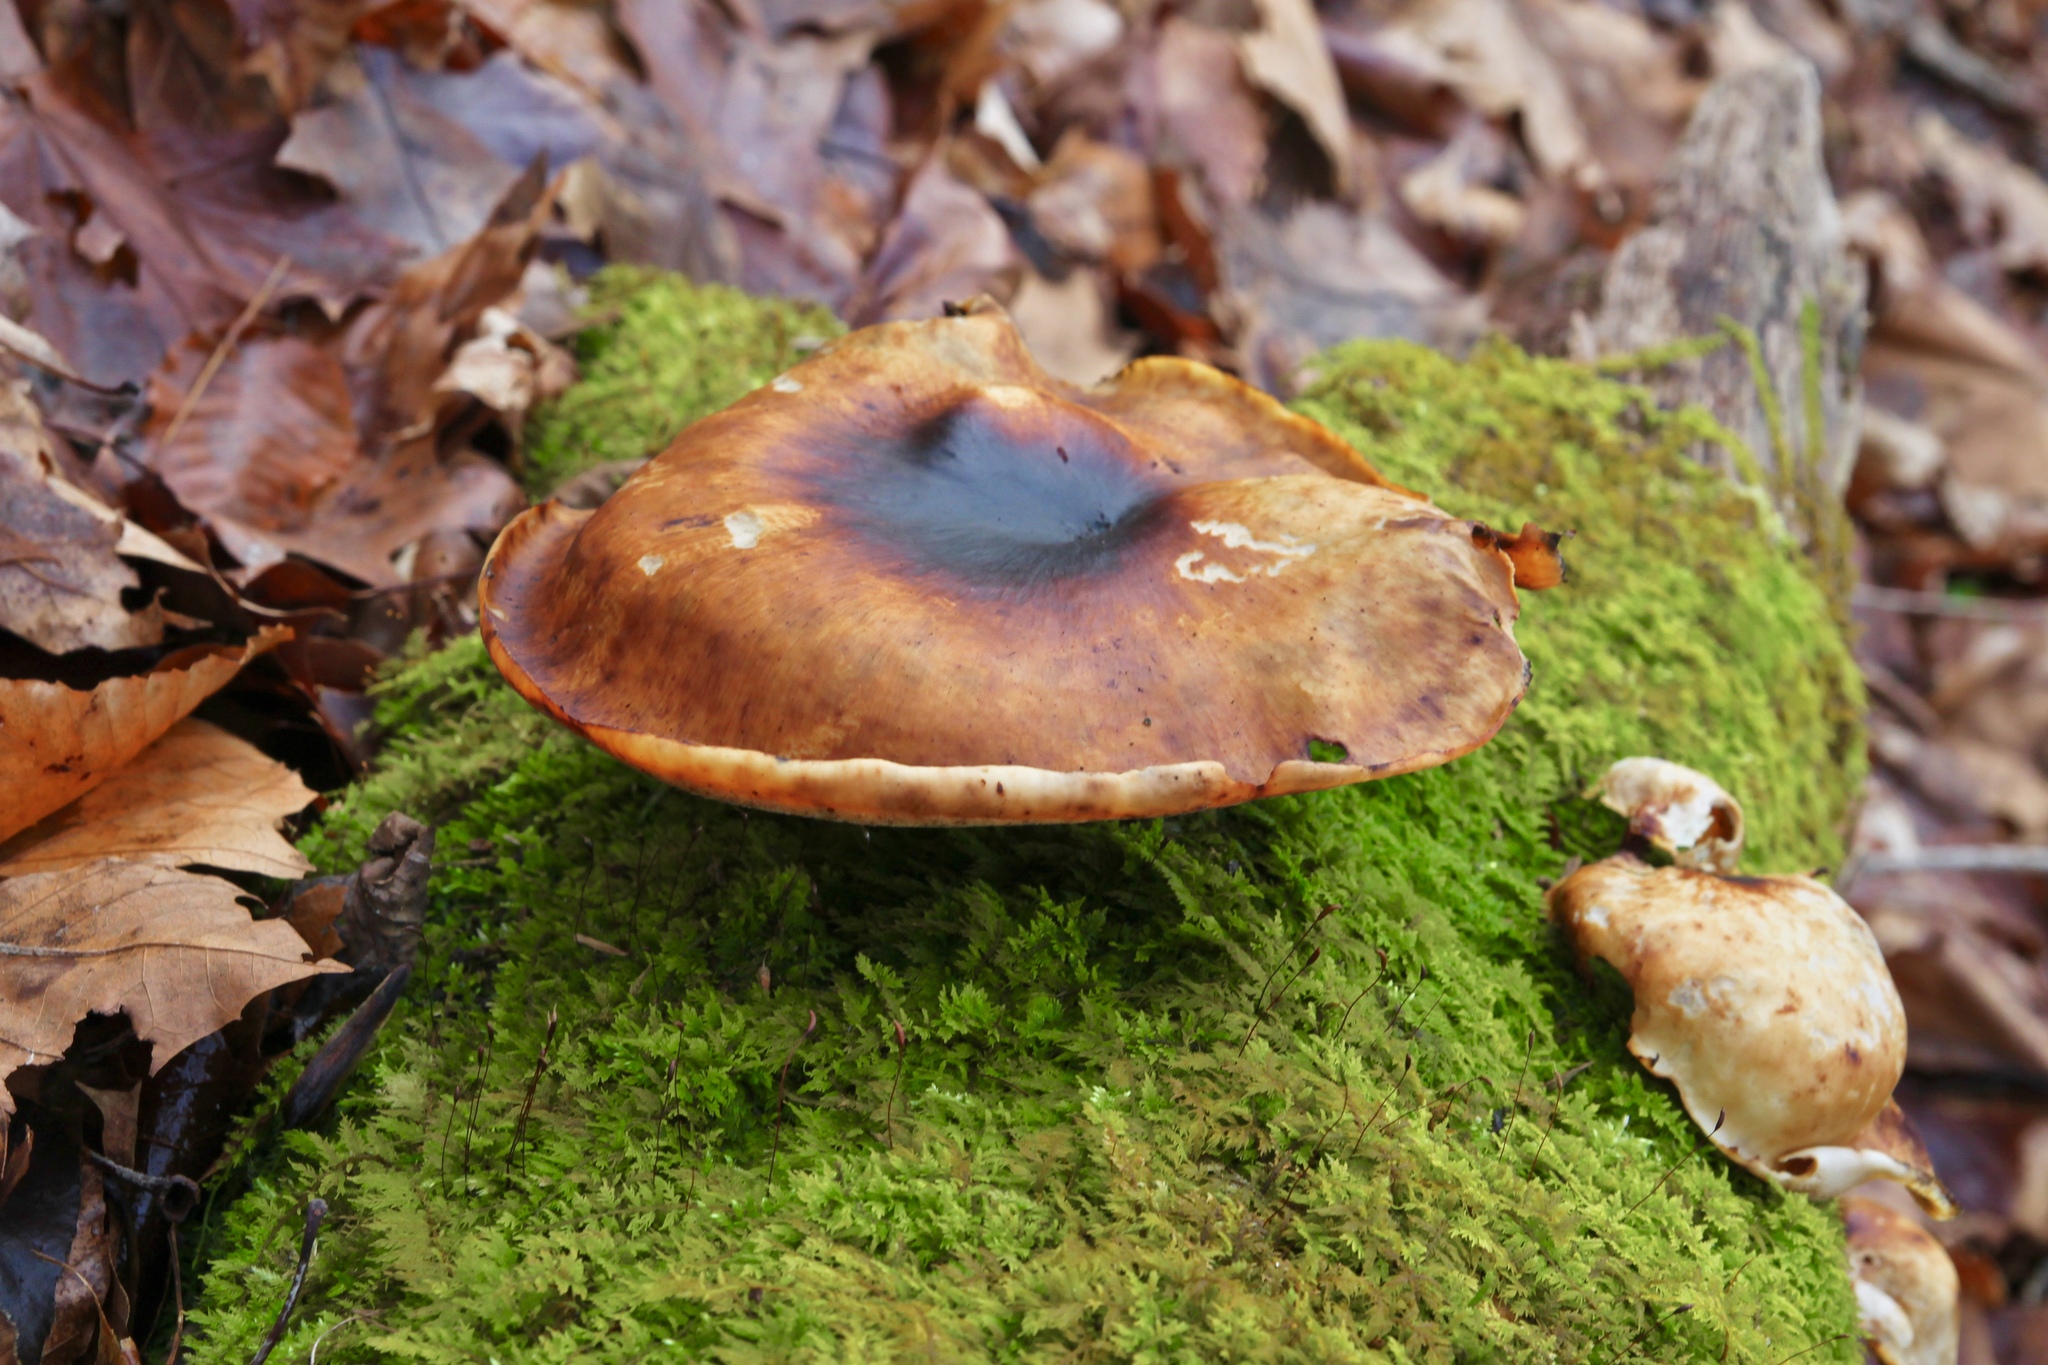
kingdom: Fungi
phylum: Basidiomycota
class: Agaricomycetes
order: Polyporales
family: Polyporaceae
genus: Picipes
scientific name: Picipes badius
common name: Bay polypore
